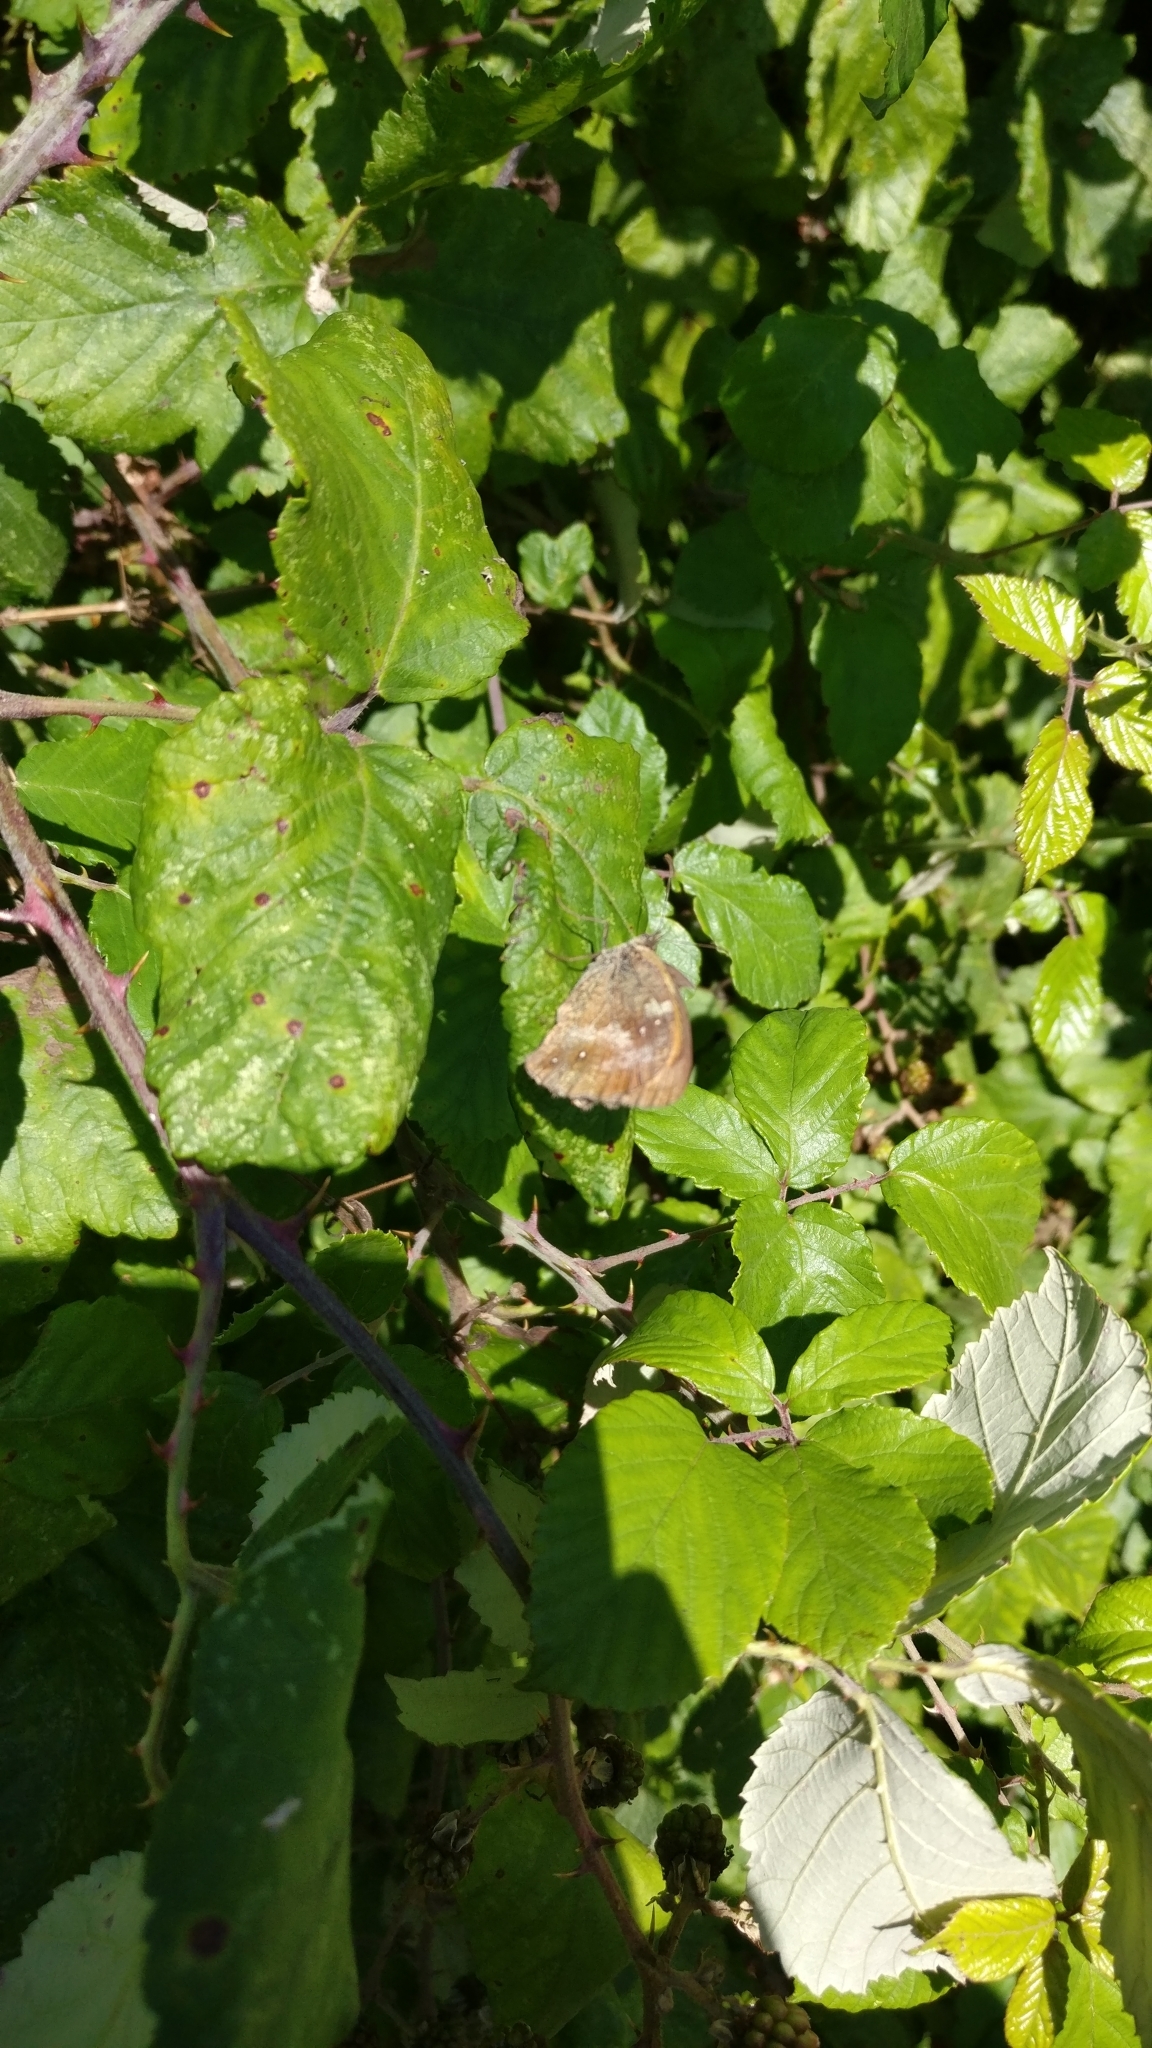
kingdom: Animalia
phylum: Arthropoda
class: Insecta
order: Lepidoptera
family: Nymphalidae
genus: Pyronia
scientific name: Pyronia tithonus
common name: Gatekeeper
